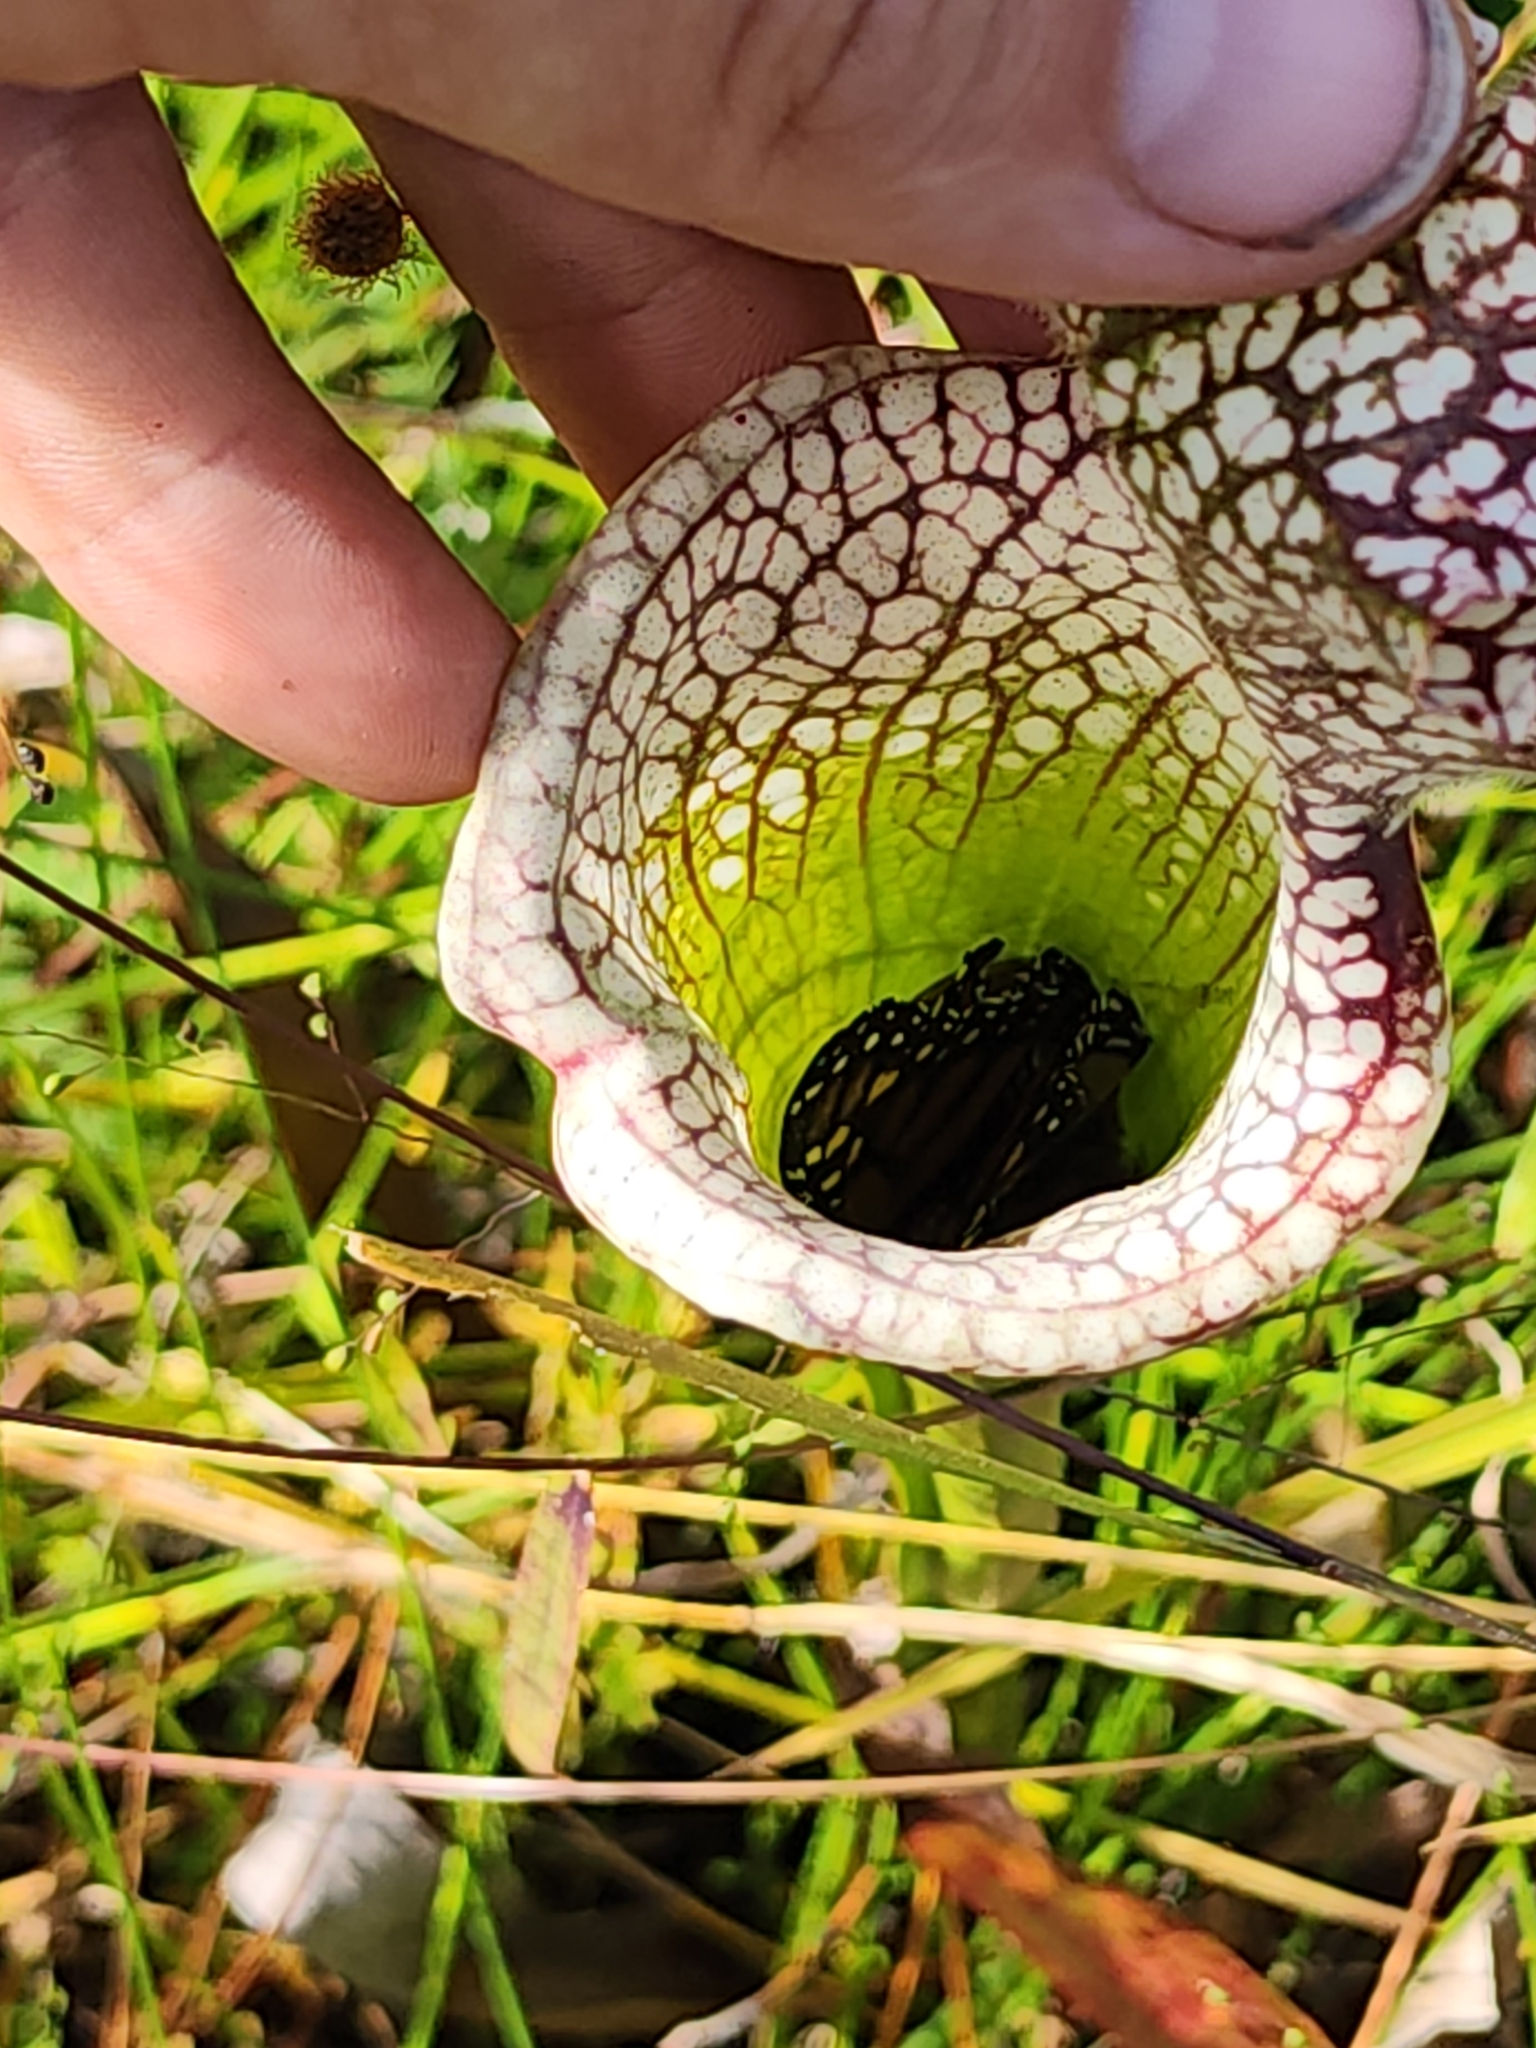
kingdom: Animalia
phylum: Arthropoda
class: Insecta
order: Lepidoptera
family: Nymphalidae
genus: Danaus
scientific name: Danaus plexippus
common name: Monarch
